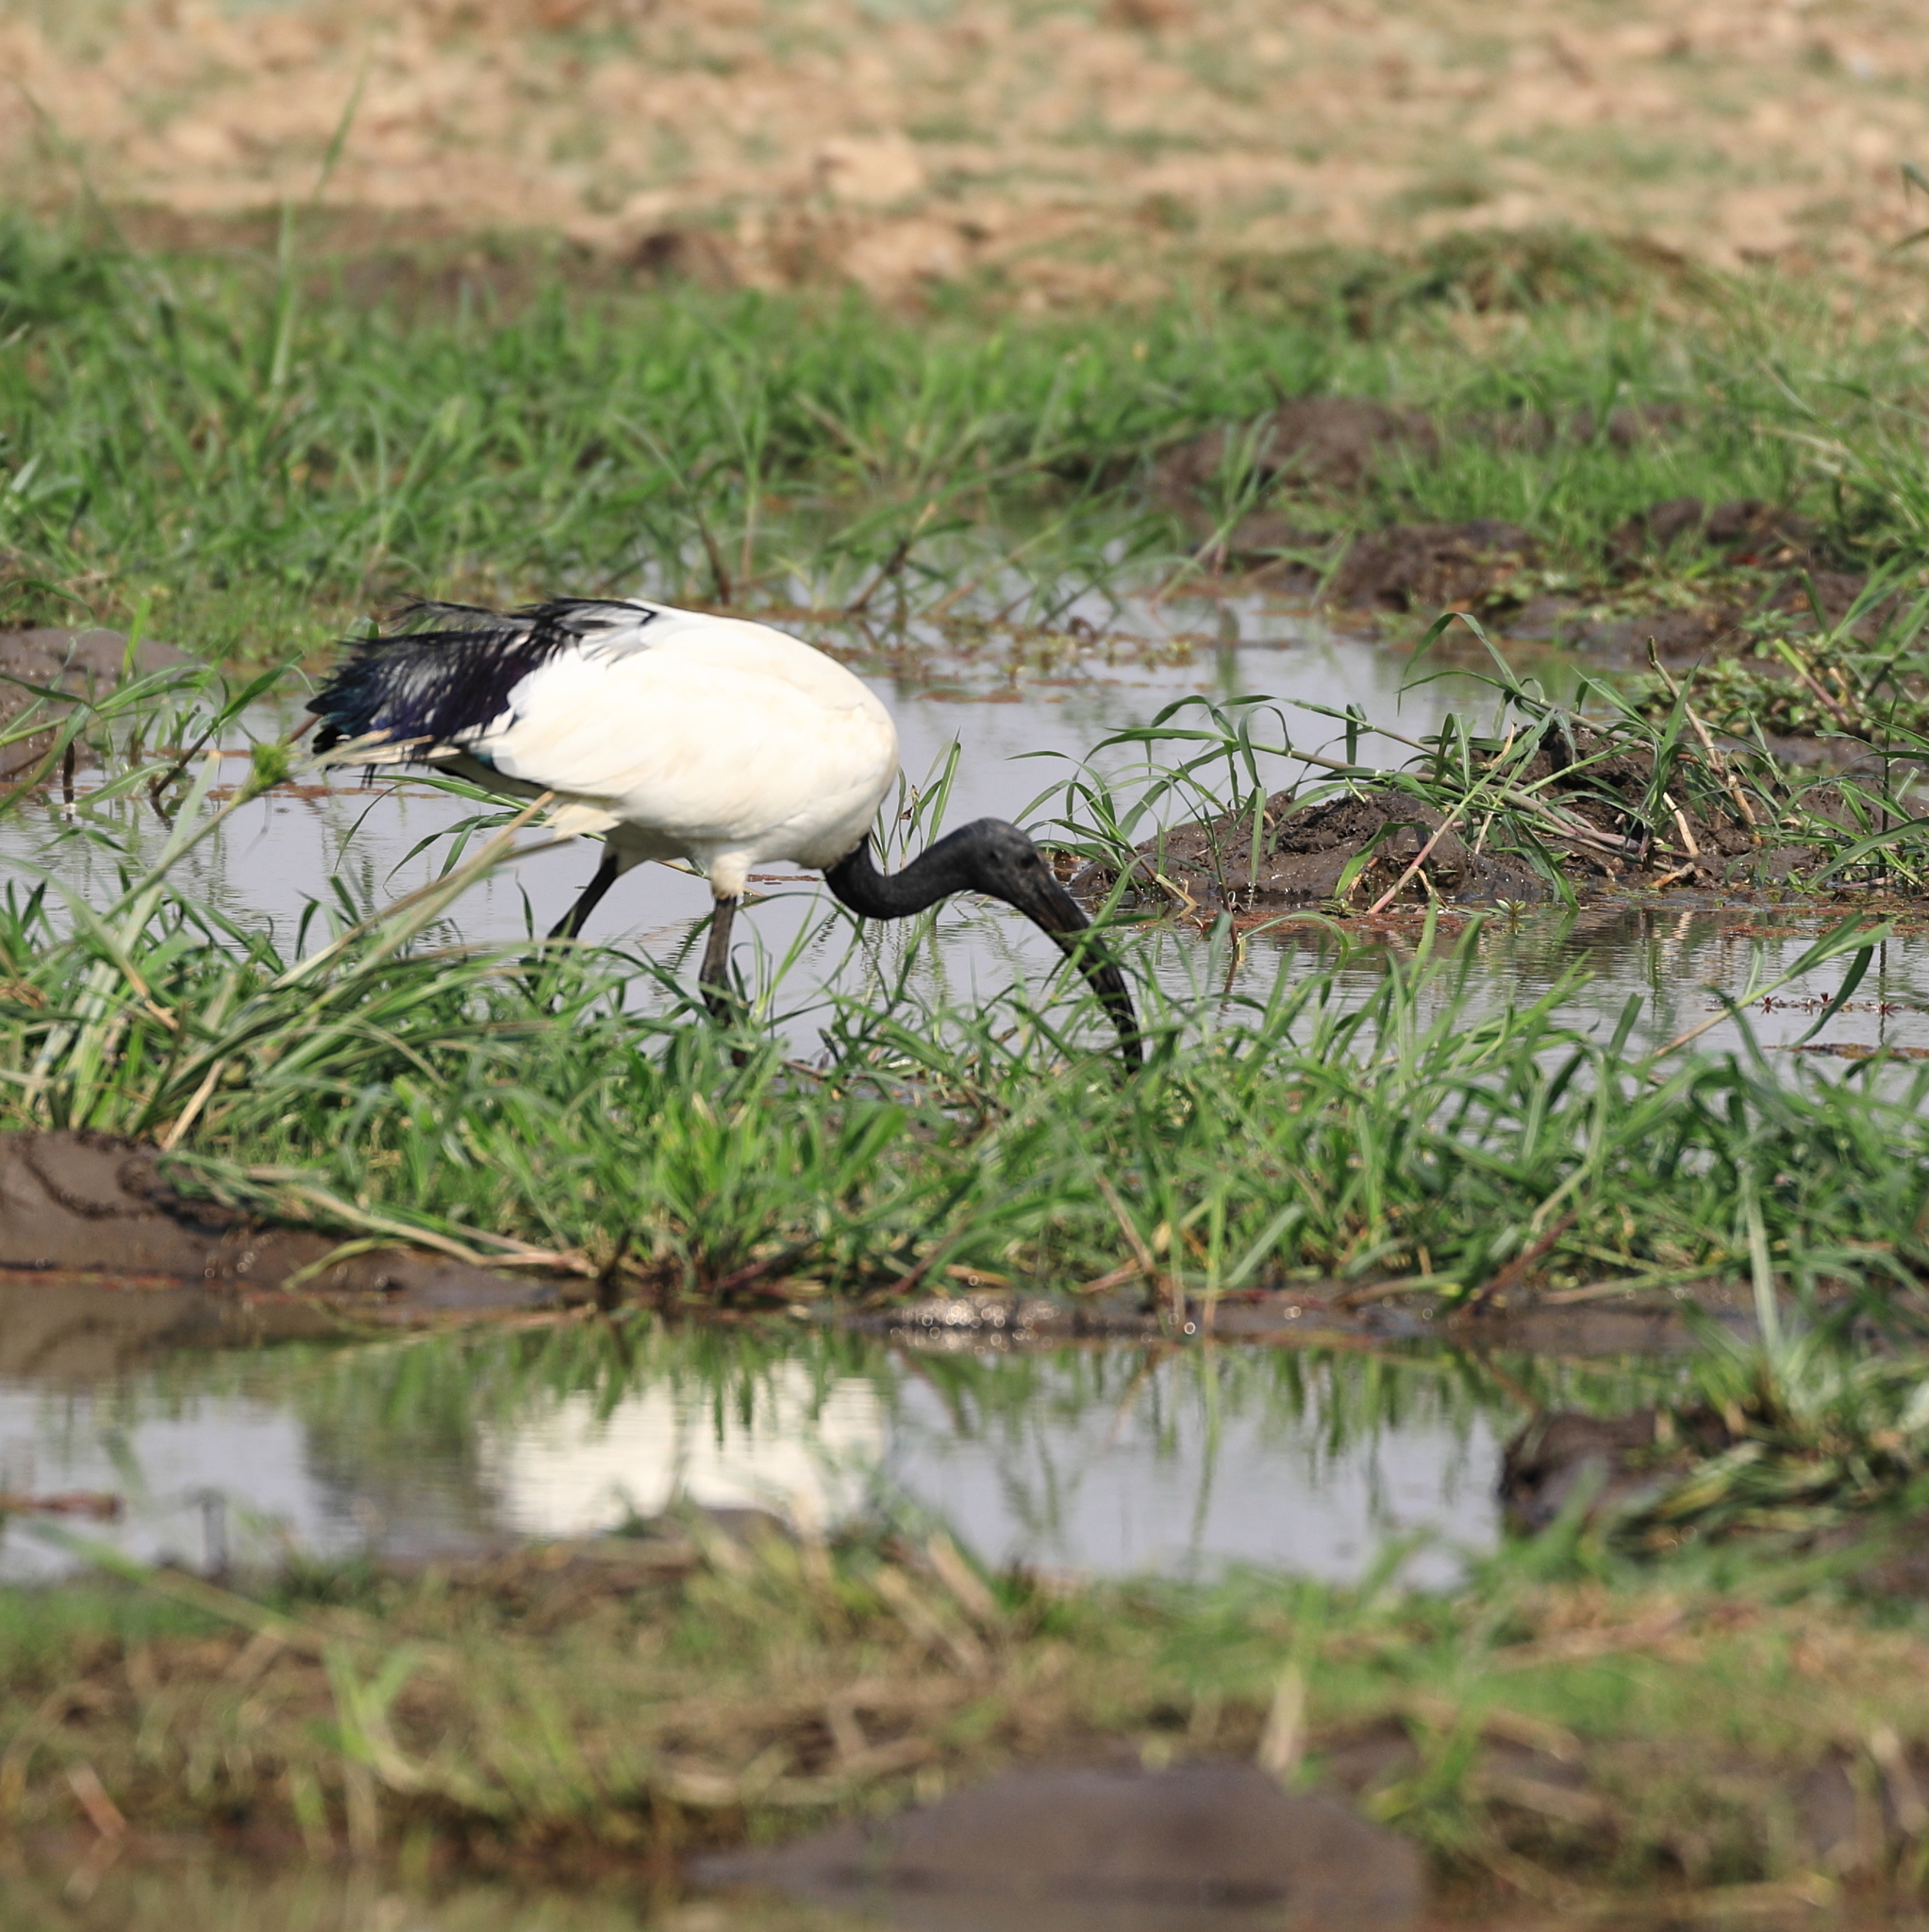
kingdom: Animalia
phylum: Chordata
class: Aves
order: Pelecaniformes
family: Threskiornithidae
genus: Threskiornis
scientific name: Threskiornis aethiopicus
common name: Sacred ibis
